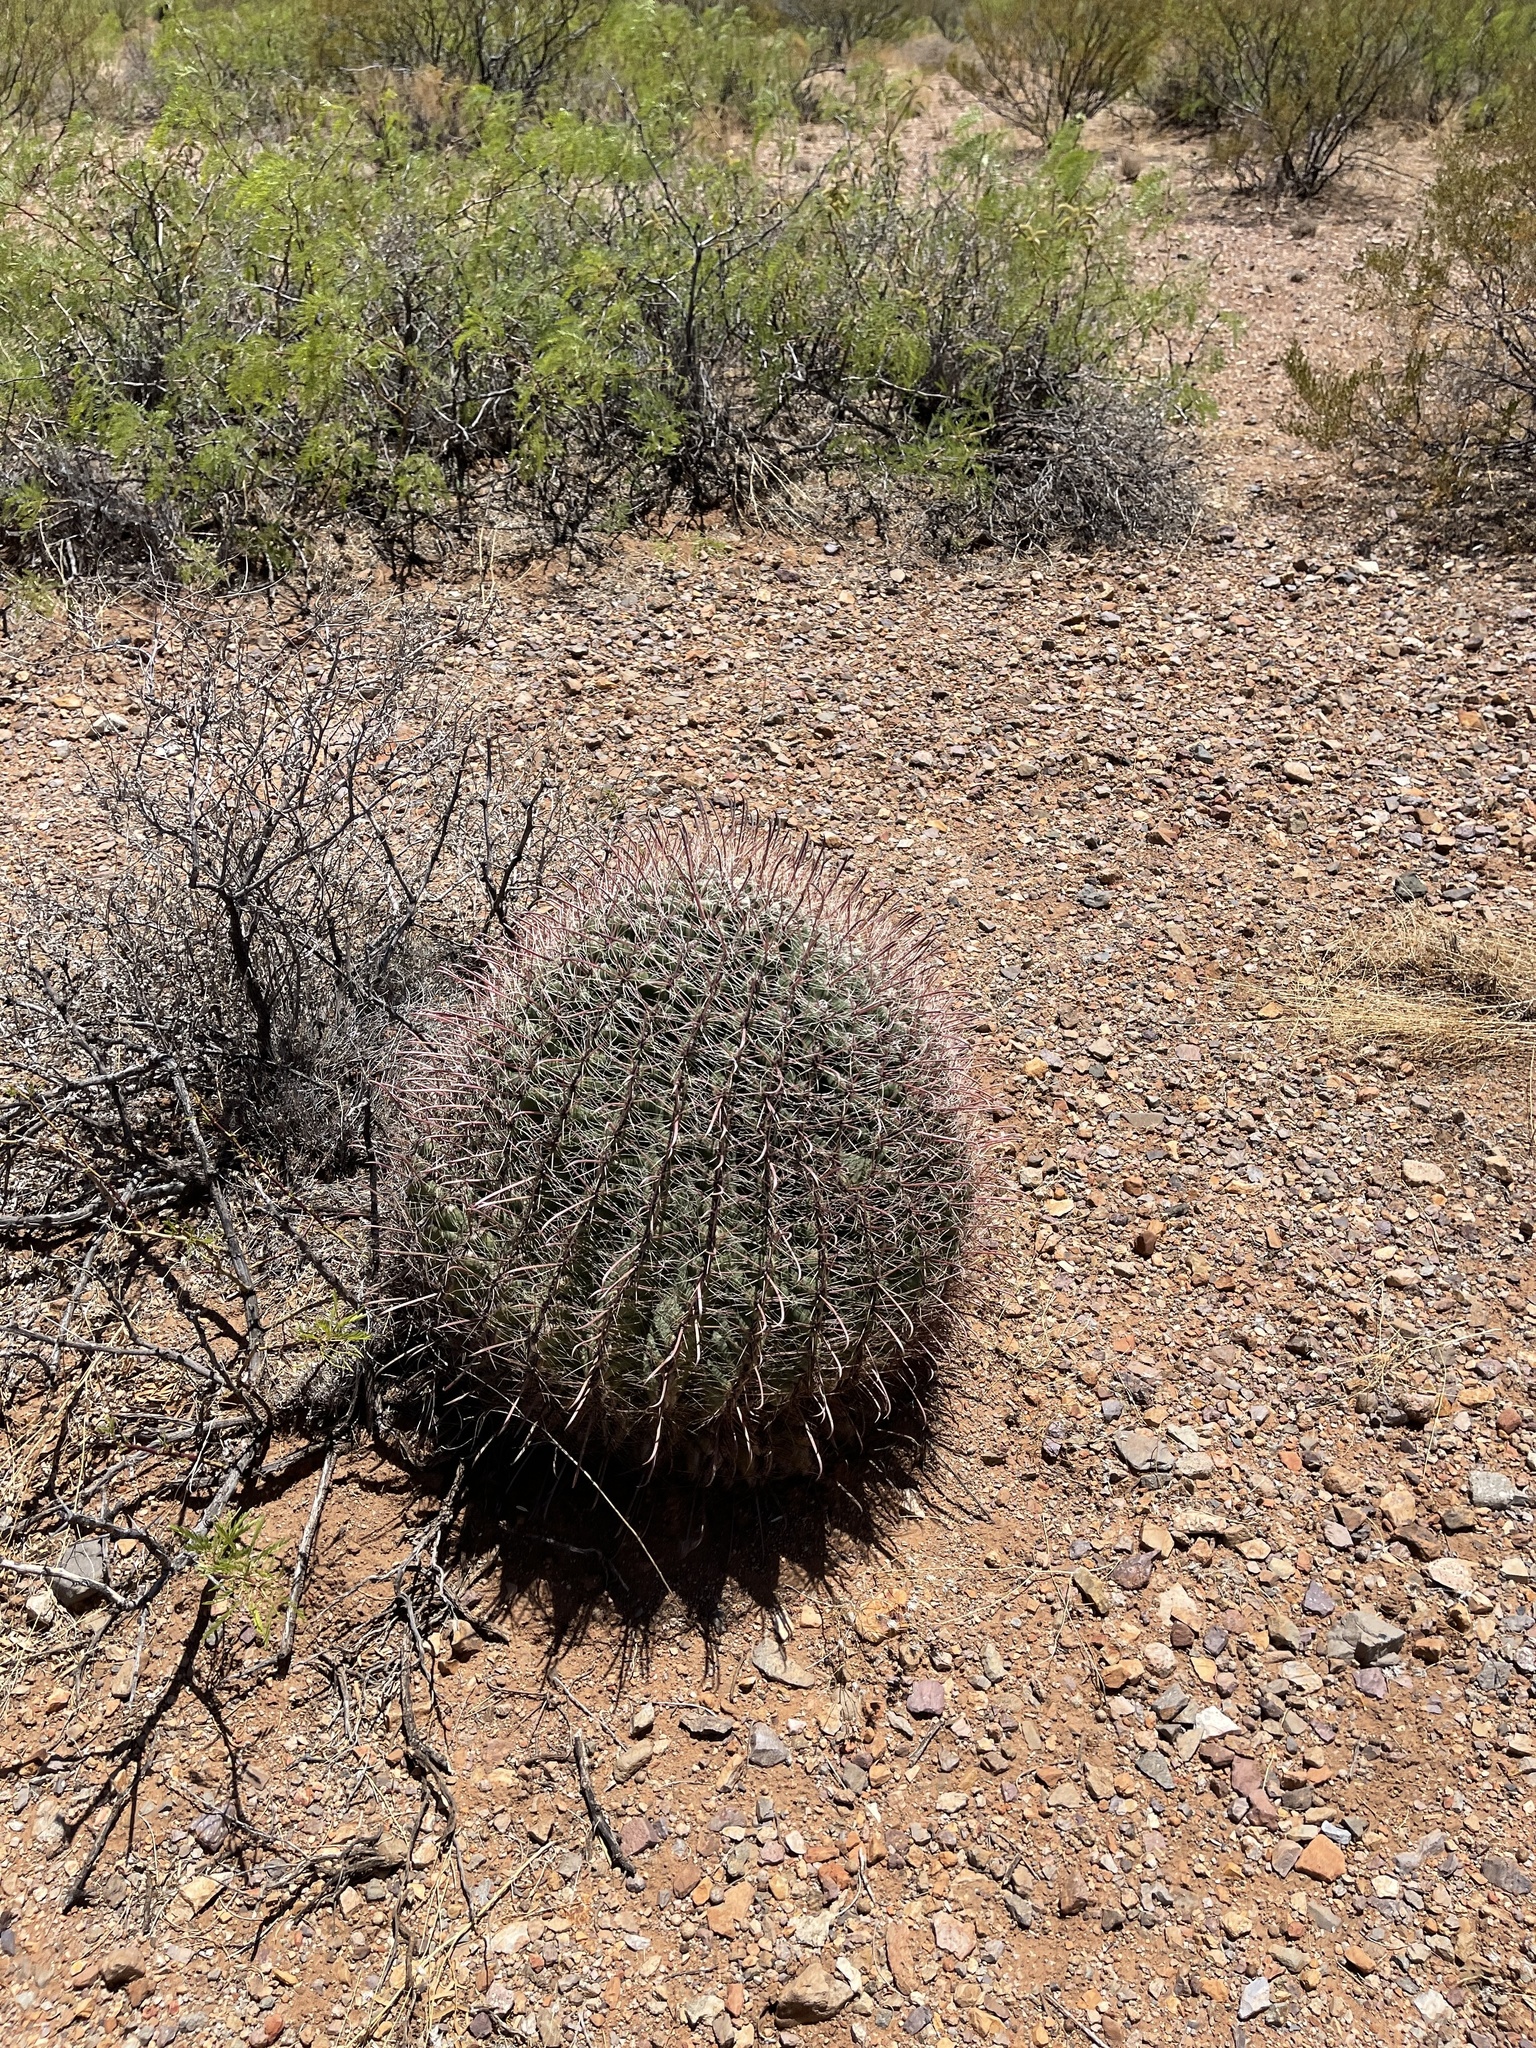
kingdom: Plantae
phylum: Tracheophyta
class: Magnoliopsida
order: Caryophyllales
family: Cactaceae
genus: Ferocactus
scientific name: Ferocactus wislizeni
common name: Candy barrel cactus
